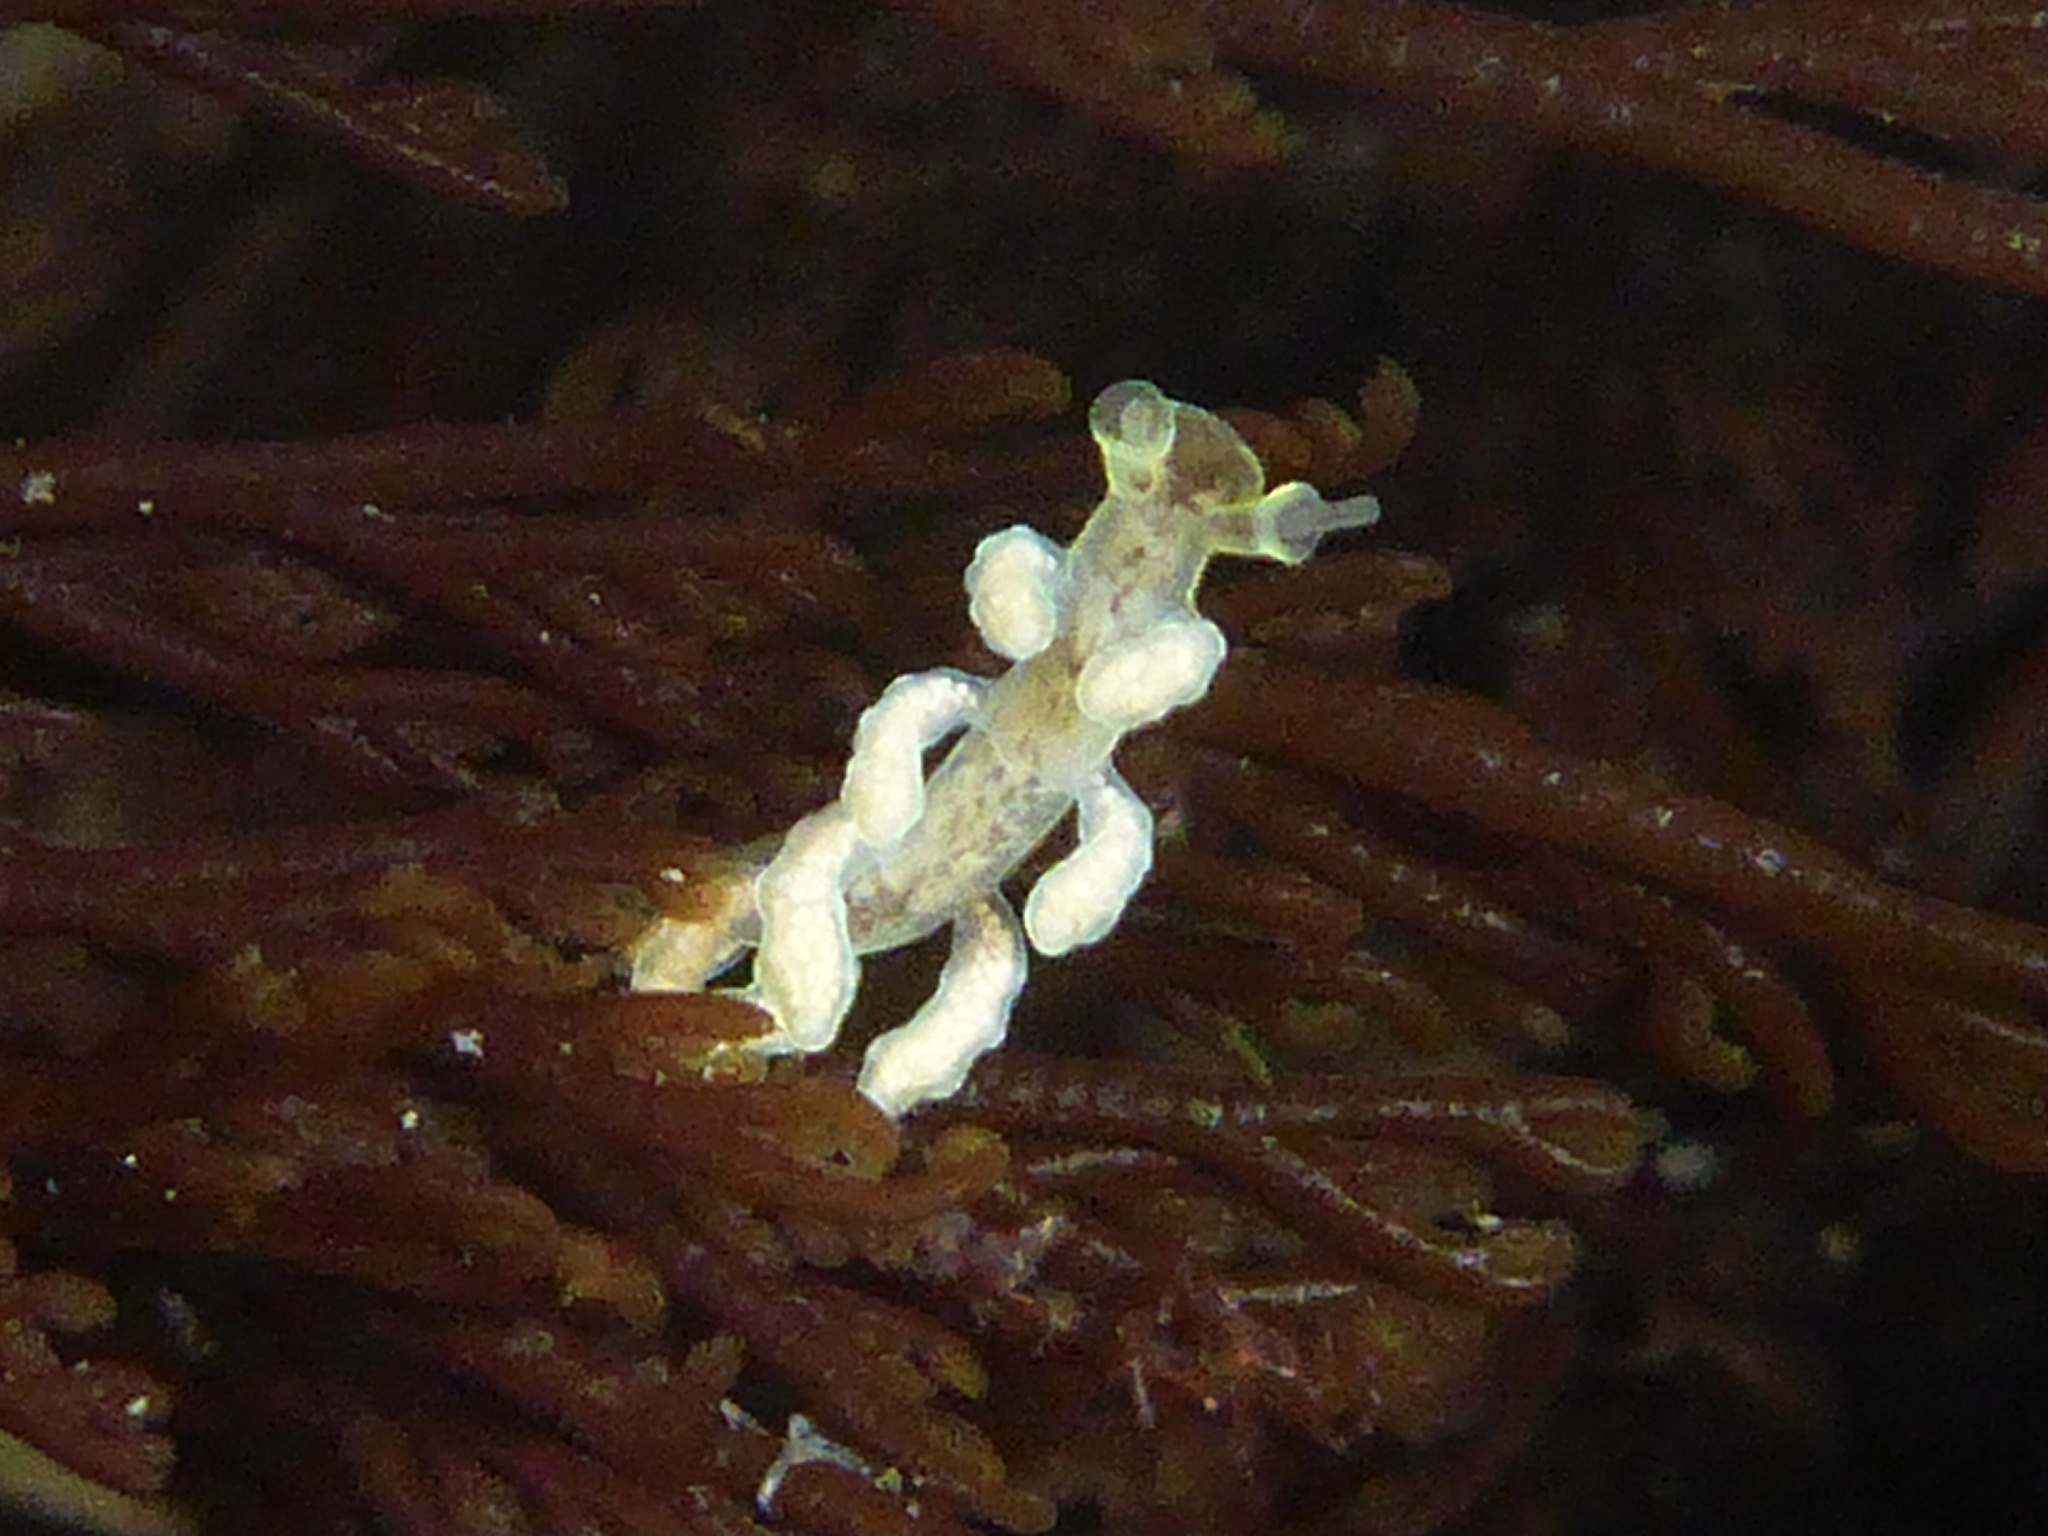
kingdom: Animalia
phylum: Mollusca
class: Gastropoda
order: Nudibranchia
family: Dotidae
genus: Doto
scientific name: Doto columbiana
